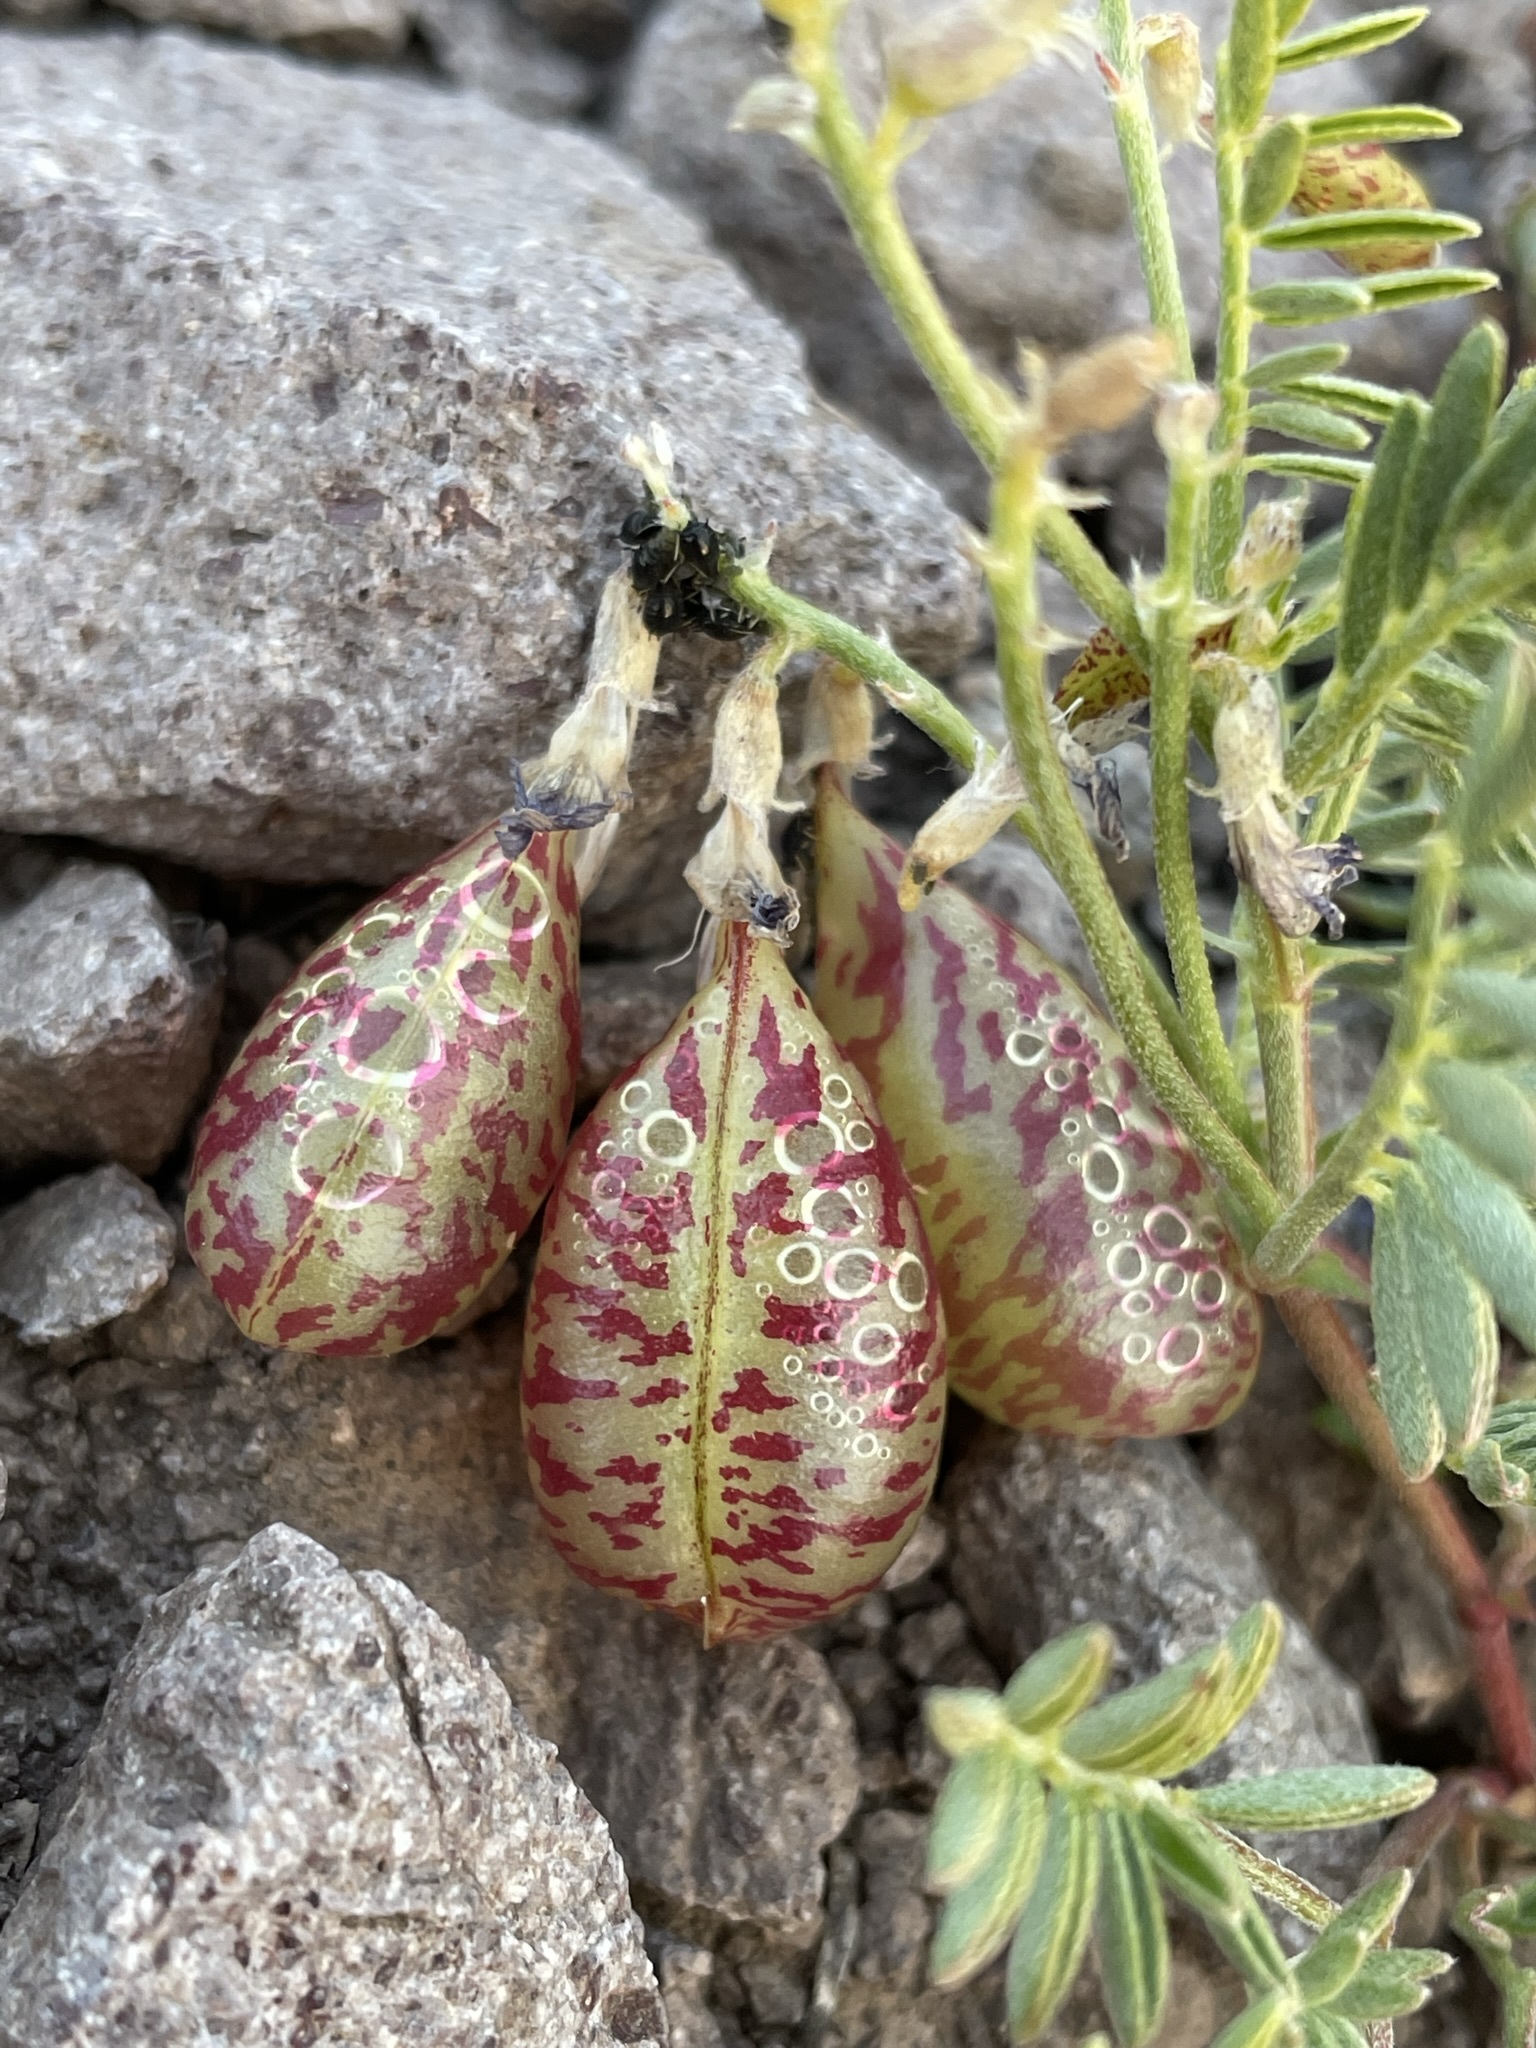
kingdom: Plantae
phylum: Tracheophyta
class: Magnoliopsida
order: Fabales
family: Fabaceae
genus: Astragalus
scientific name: Astragalus whitneyi
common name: Balloonpod milkvetch
